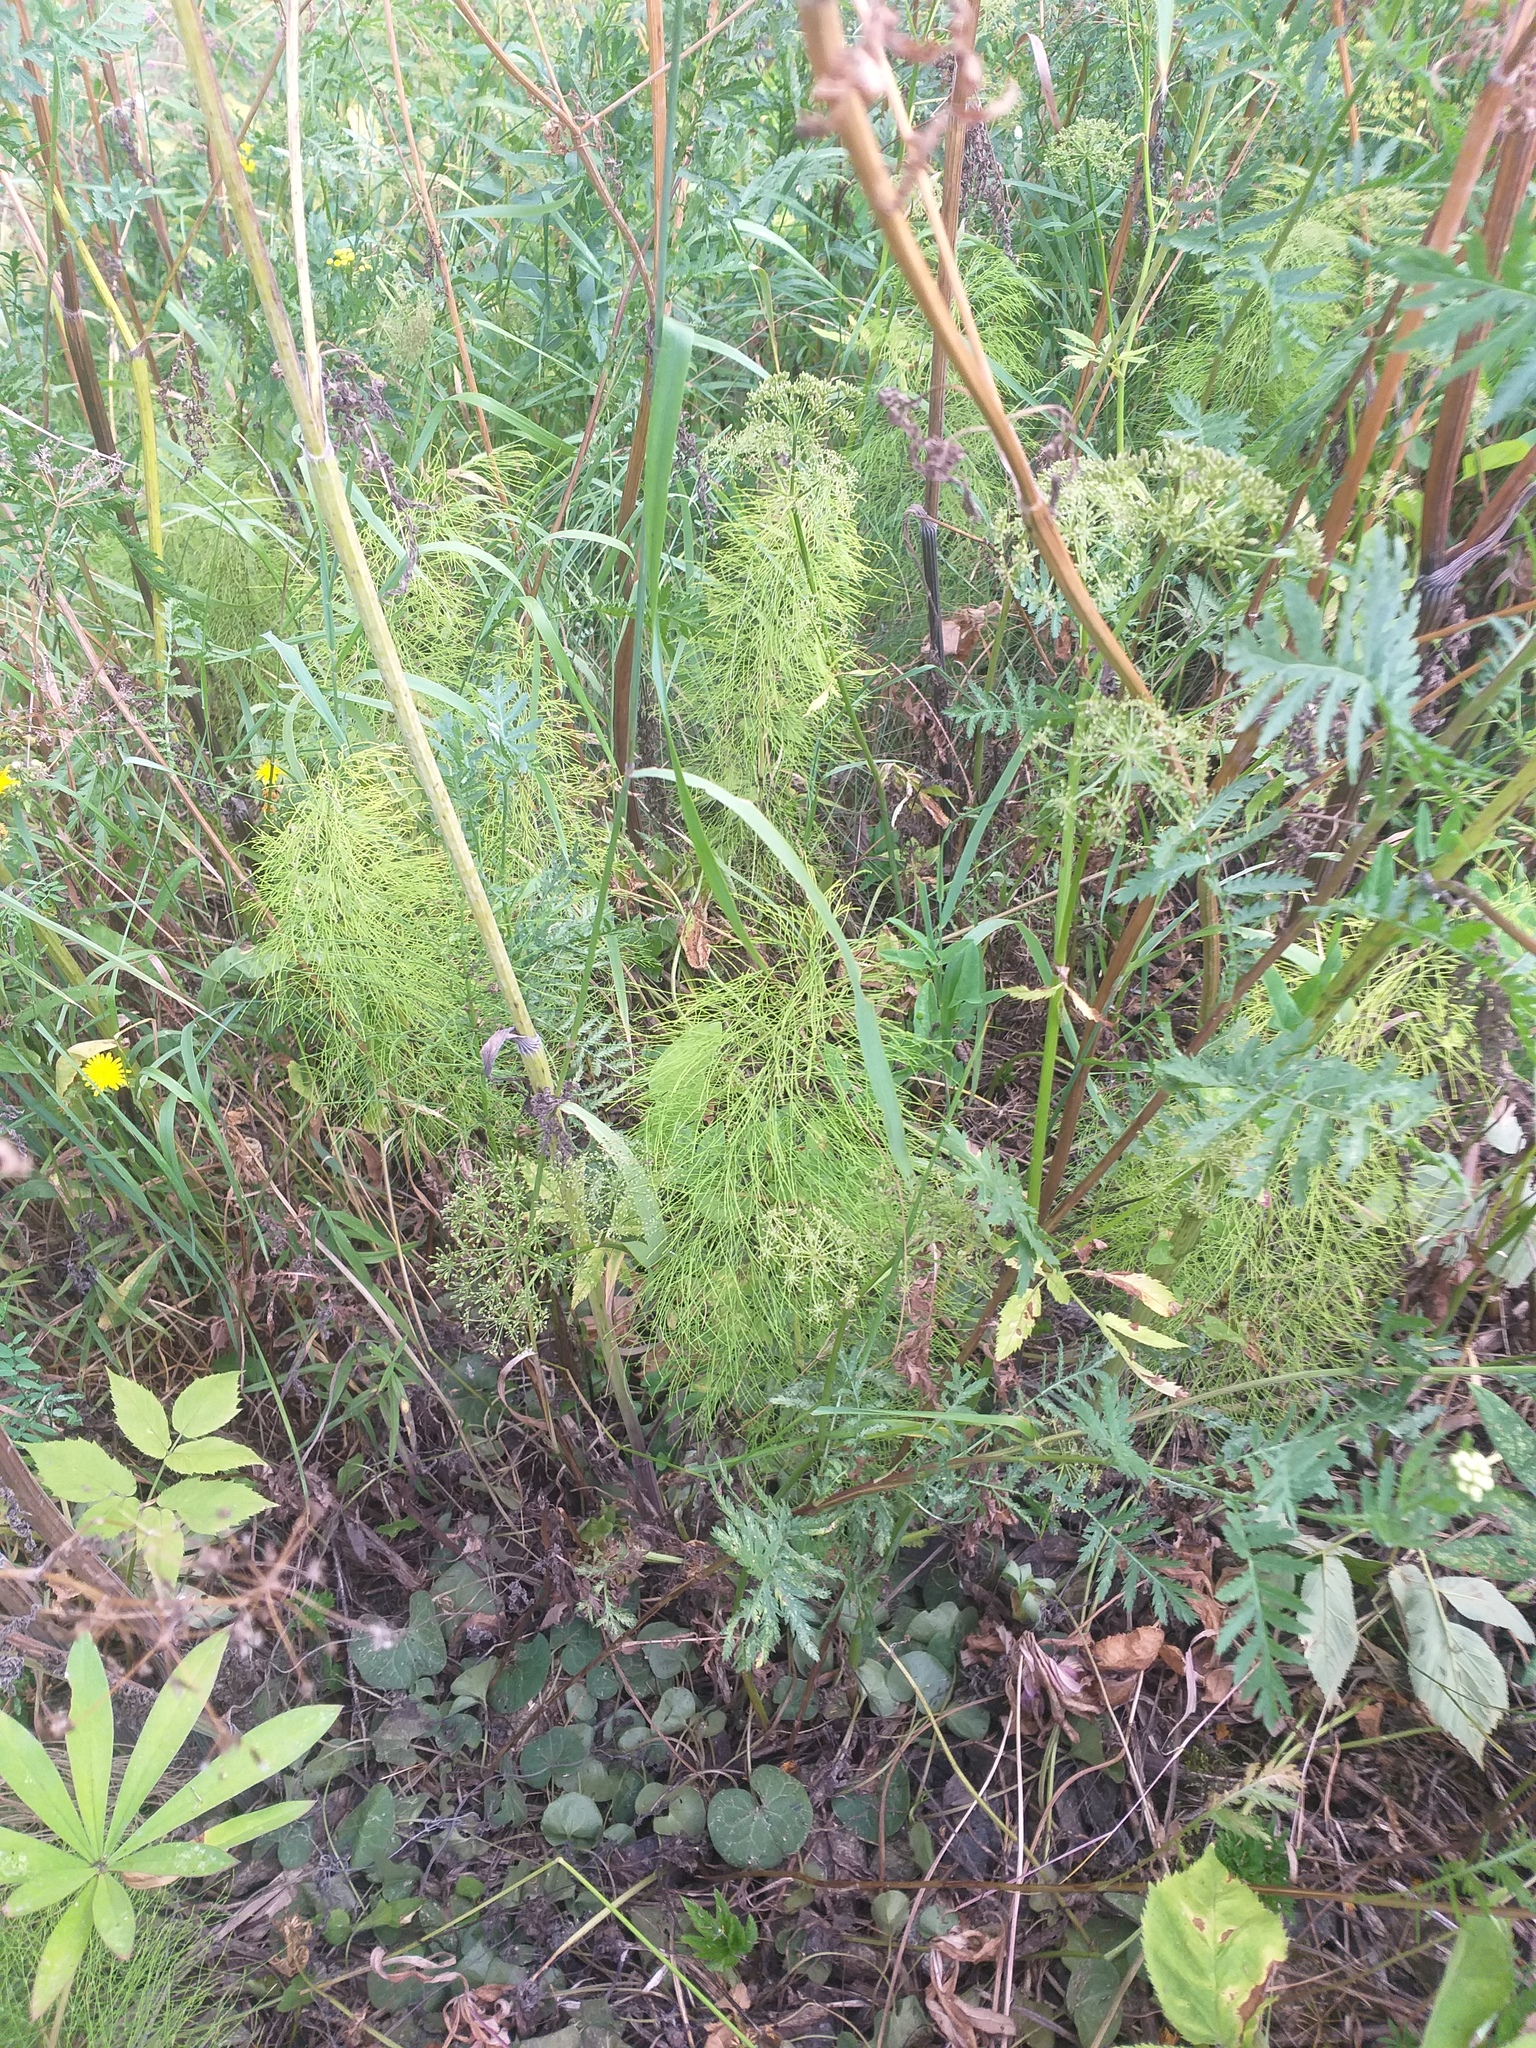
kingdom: Plantae
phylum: Tracheophyta
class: Polypodiopsida
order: Equisetales
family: Equisetaceae
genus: Equisetum
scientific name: Equisetum sylvaticum
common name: Wood horsetail
